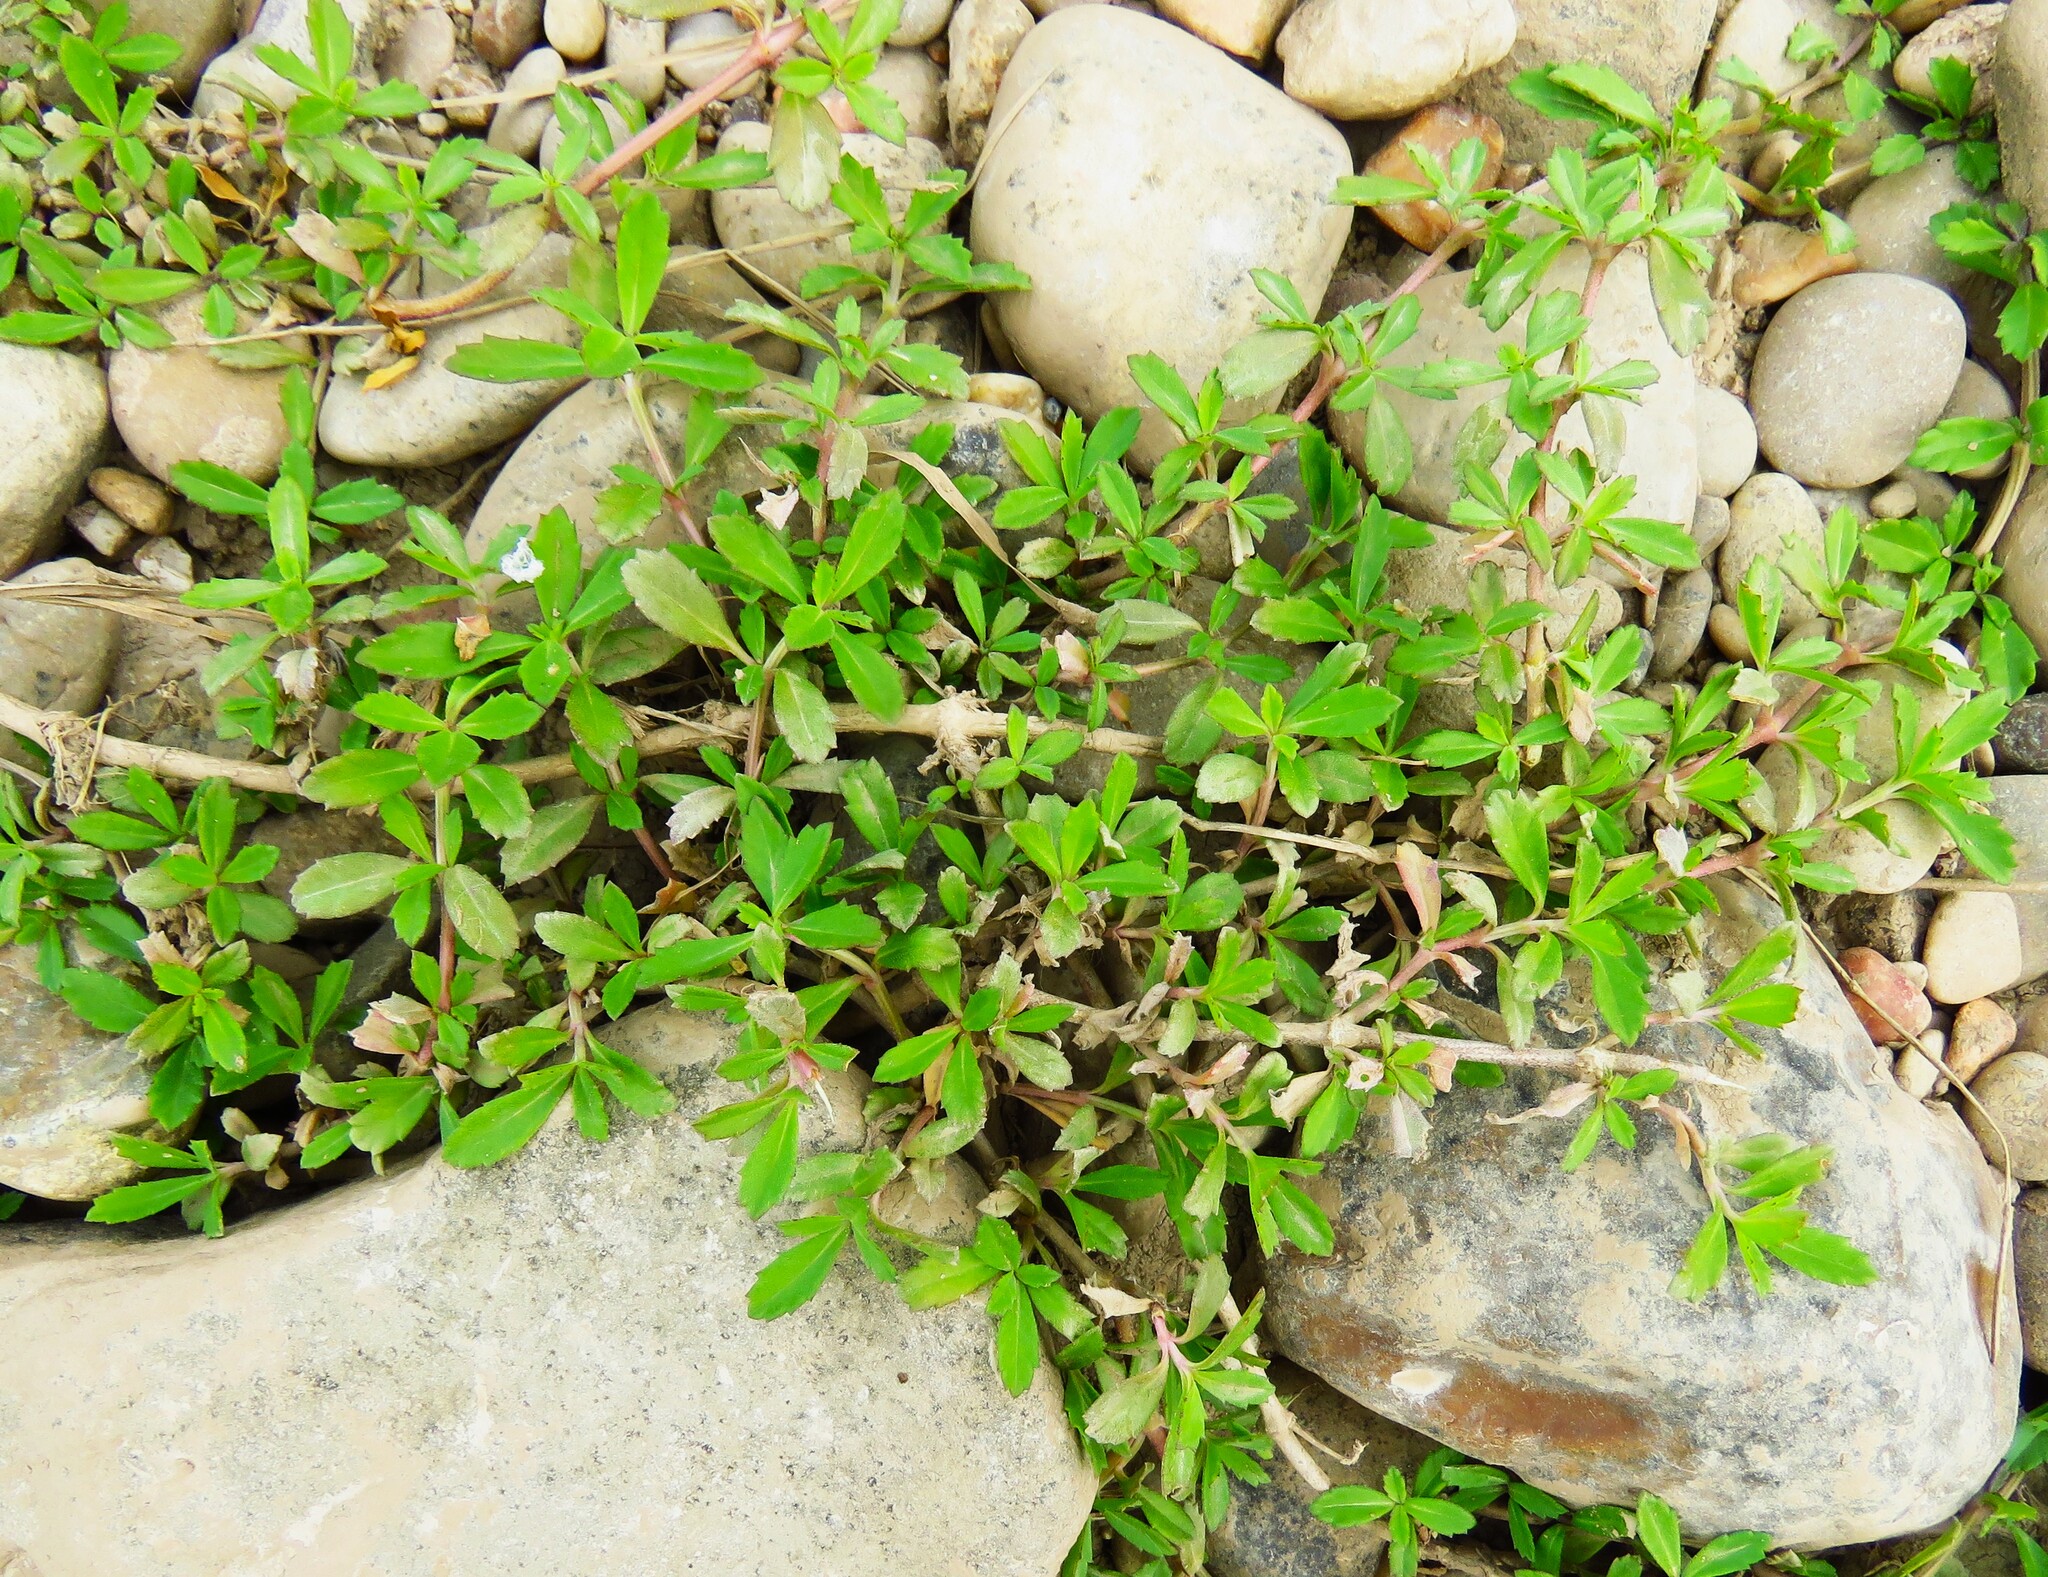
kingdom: Plantae
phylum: Tracheophyta
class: Magnoliopsida
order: Lamiales
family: Verbenaceae
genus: Phyla
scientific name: Phyla nodiflora
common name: Frogfruit
